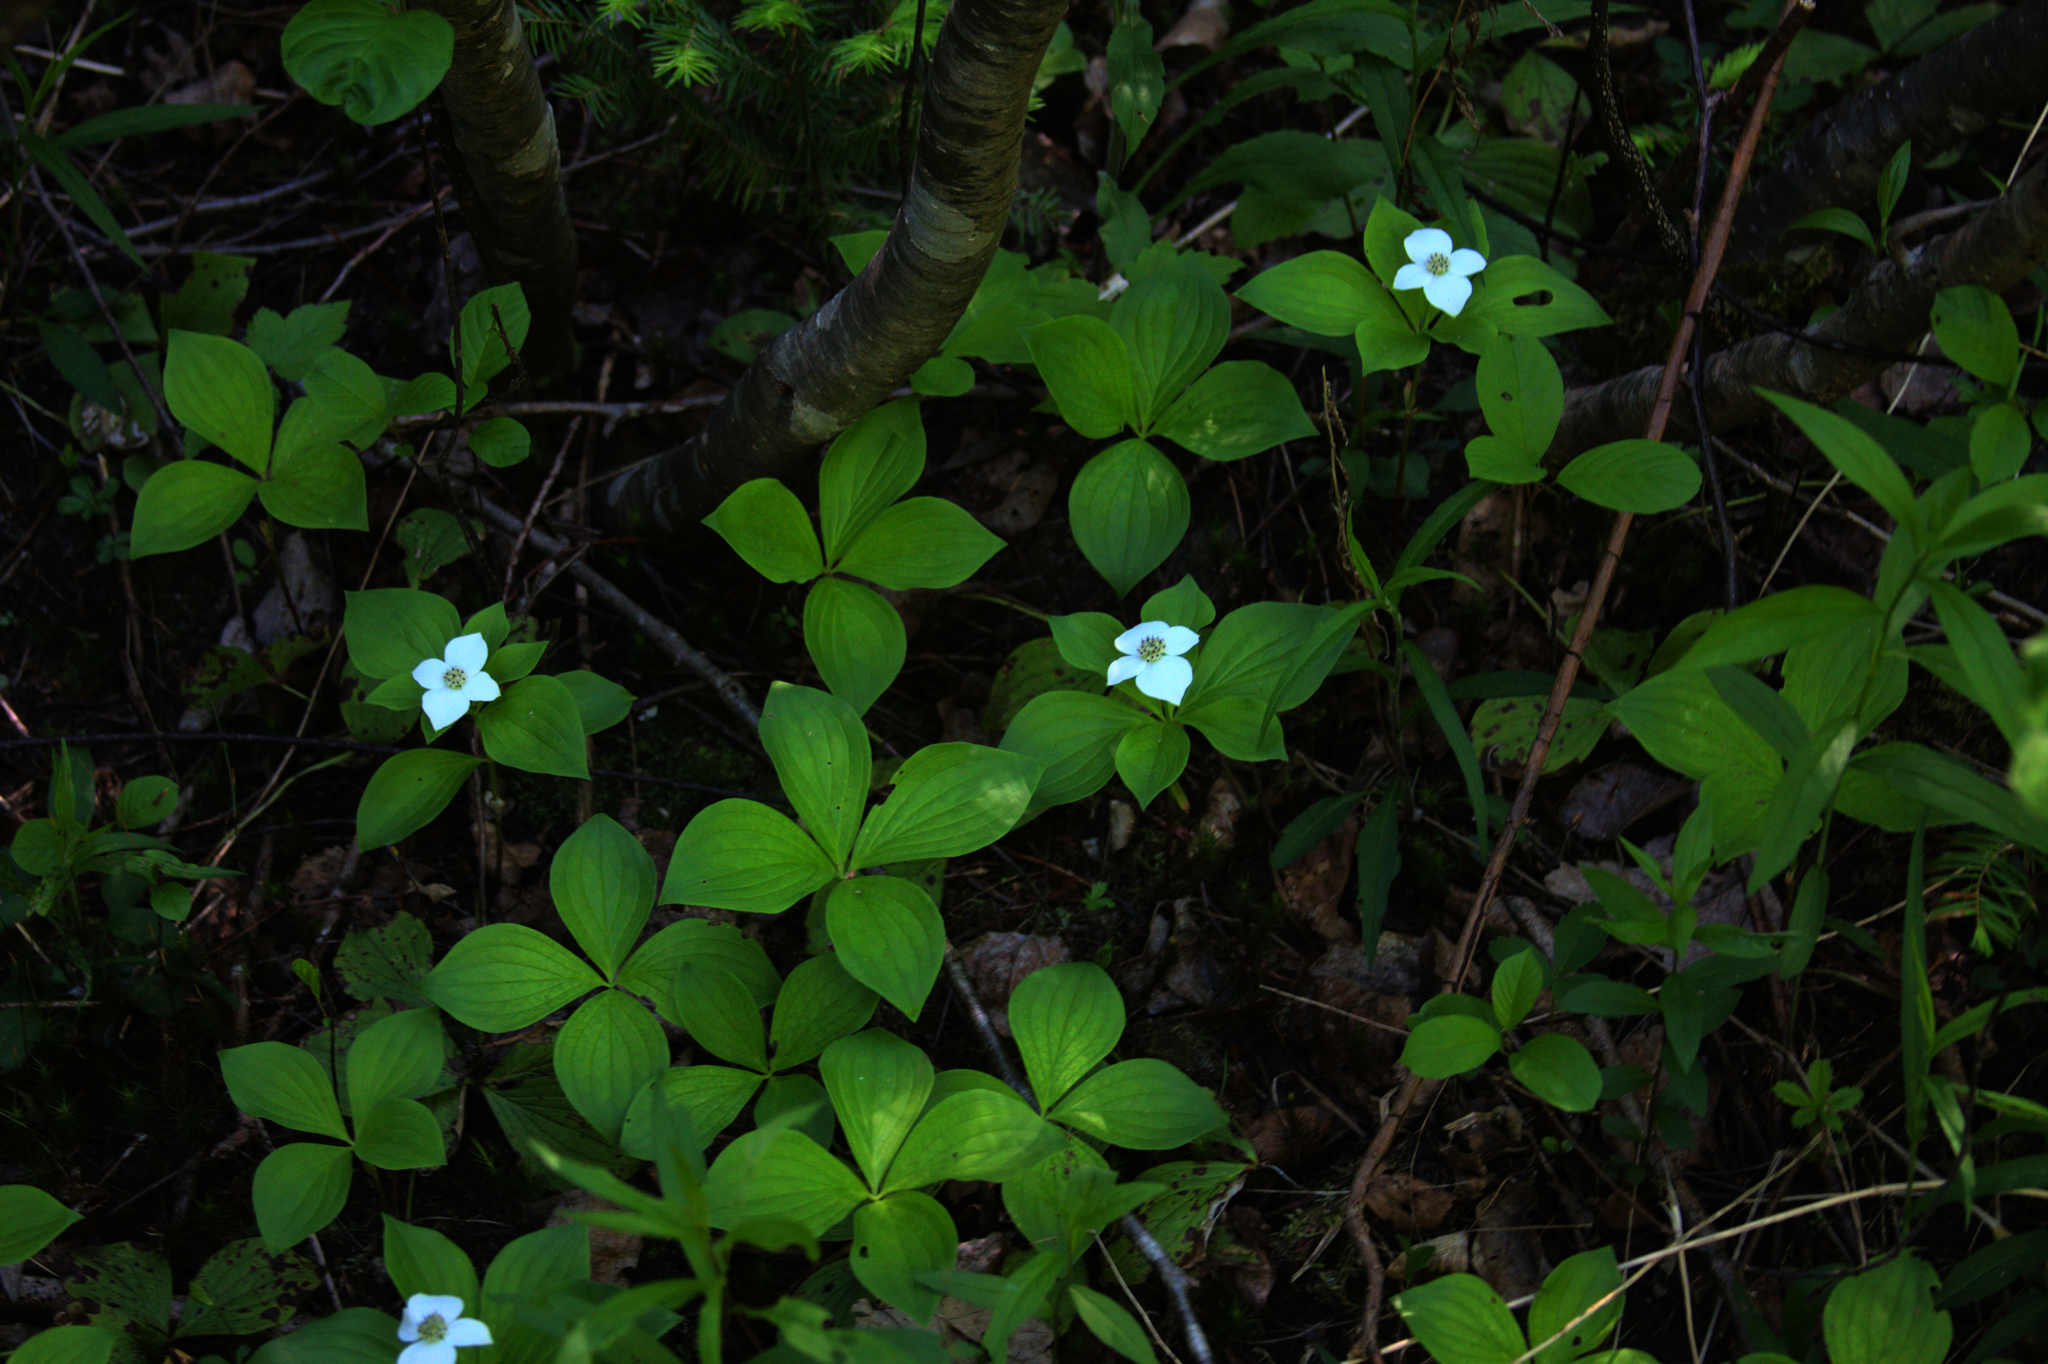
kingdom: Plantae
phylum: Tracheophyta
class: Magnoliopsida
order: Cornales
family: Cornaceae
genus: Cornus
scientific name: Cornus canadensis
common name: Creeping dogwood
